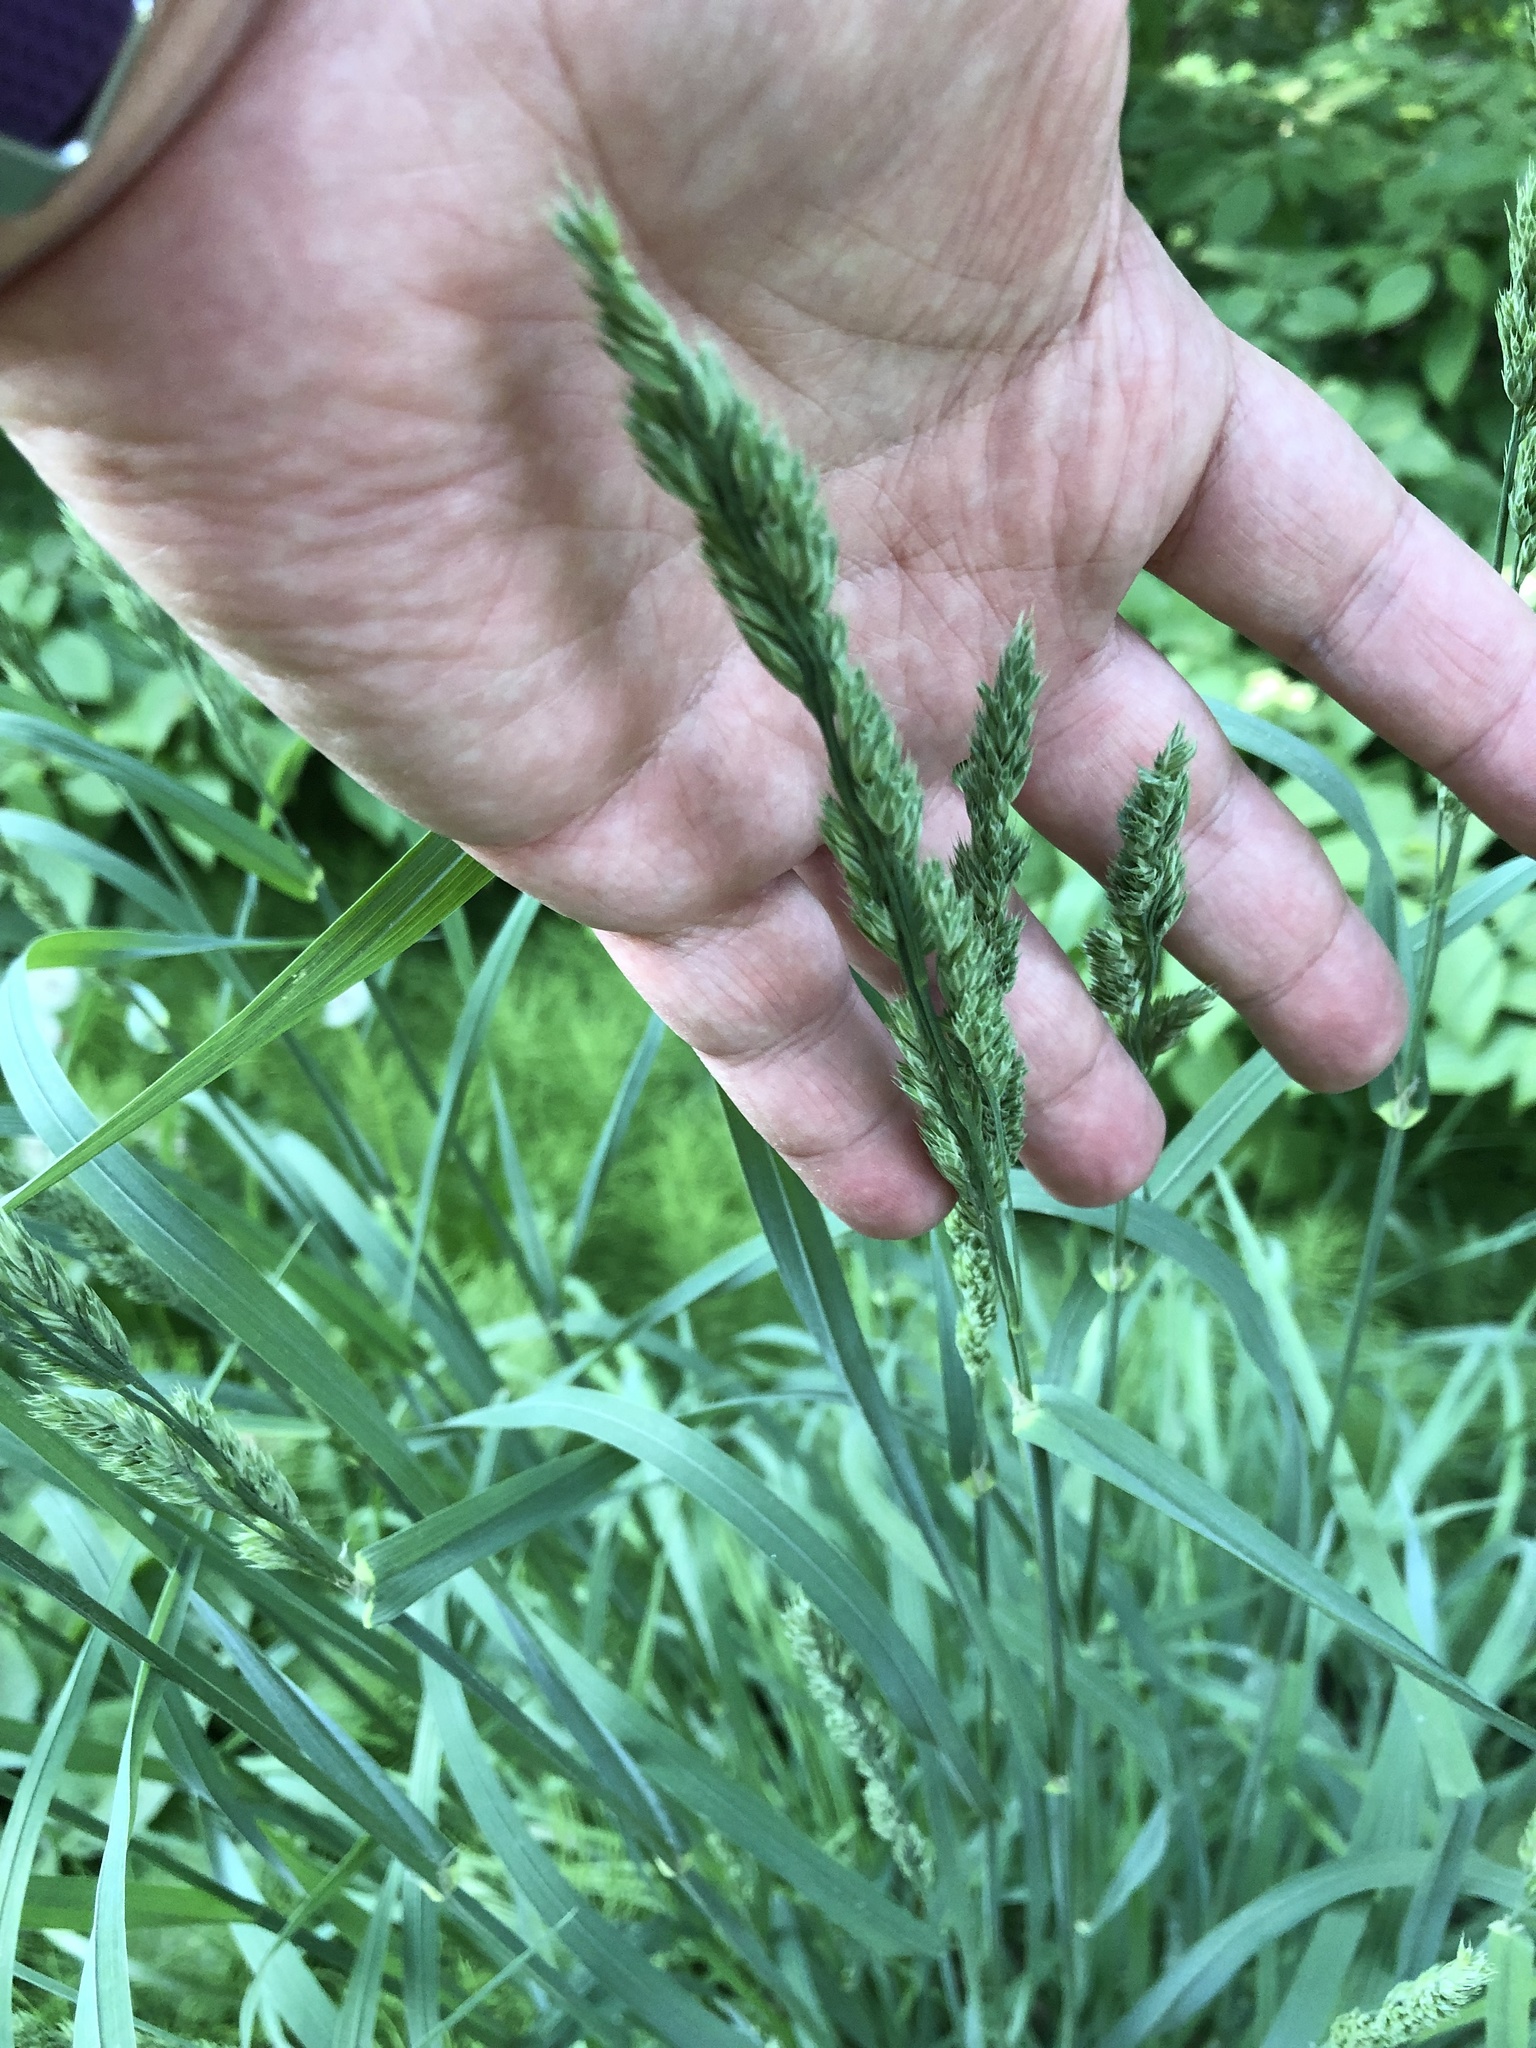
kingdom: Plantae
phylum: Tracheophyta
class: Liliopsida
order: Poales
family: Poaceae
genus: Dactylis
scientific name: Dactylis glomerata
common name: Orchardgrass
